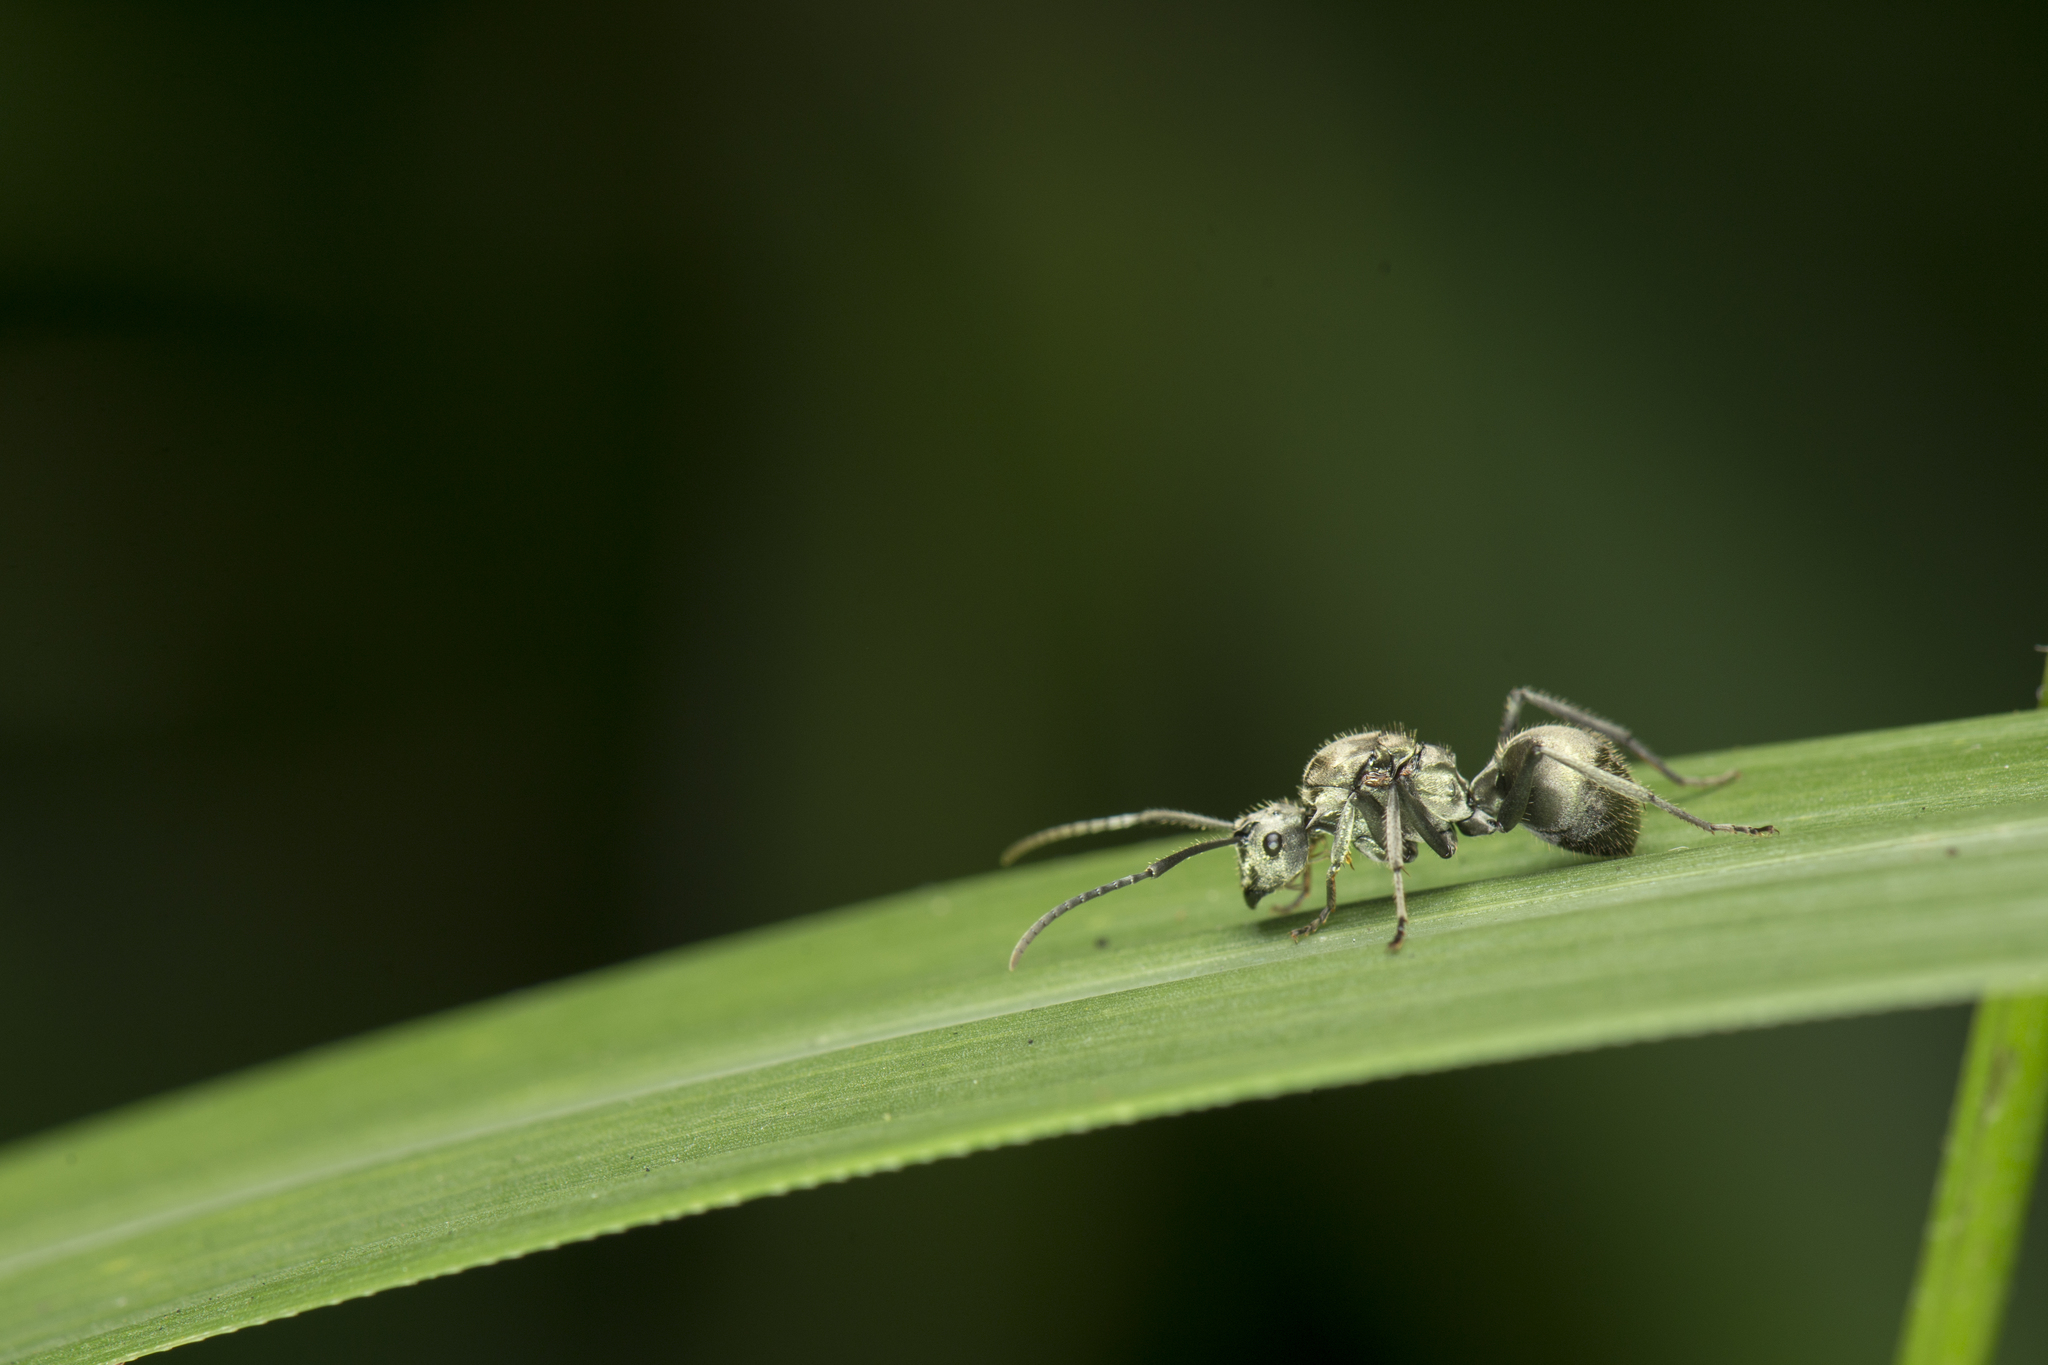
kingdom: Animalia
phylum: Arthropoda
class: Insecta
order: Hymenoptera
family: Formicidae
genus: Polyrhachis
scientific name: Polyrhachis wolfi
